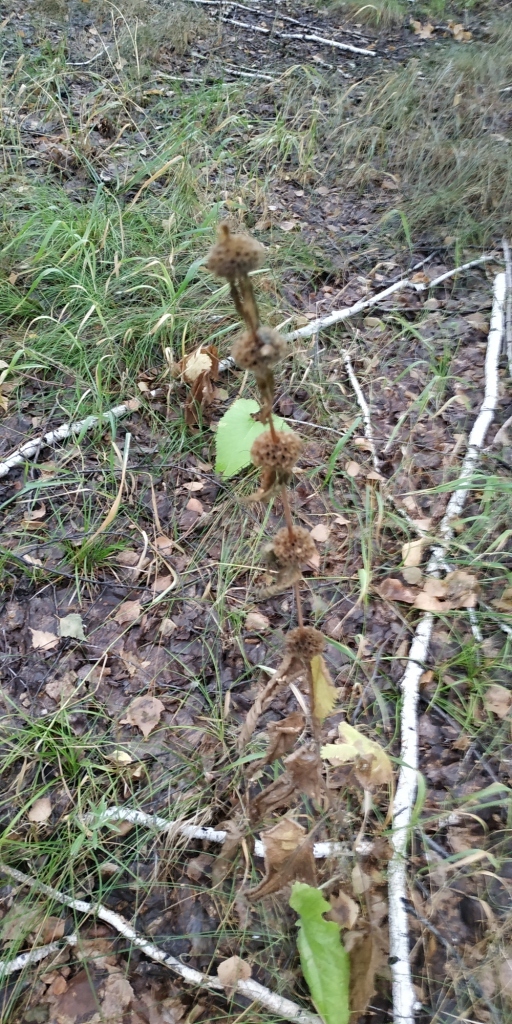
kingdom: Plantae
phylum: Tracheophyta
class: Magnoliopsida
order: Lamiales
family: Lamiaceae
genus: Phlomoides
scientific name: Phlomoides tuberosa
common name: Tuberous jerusalem sage
